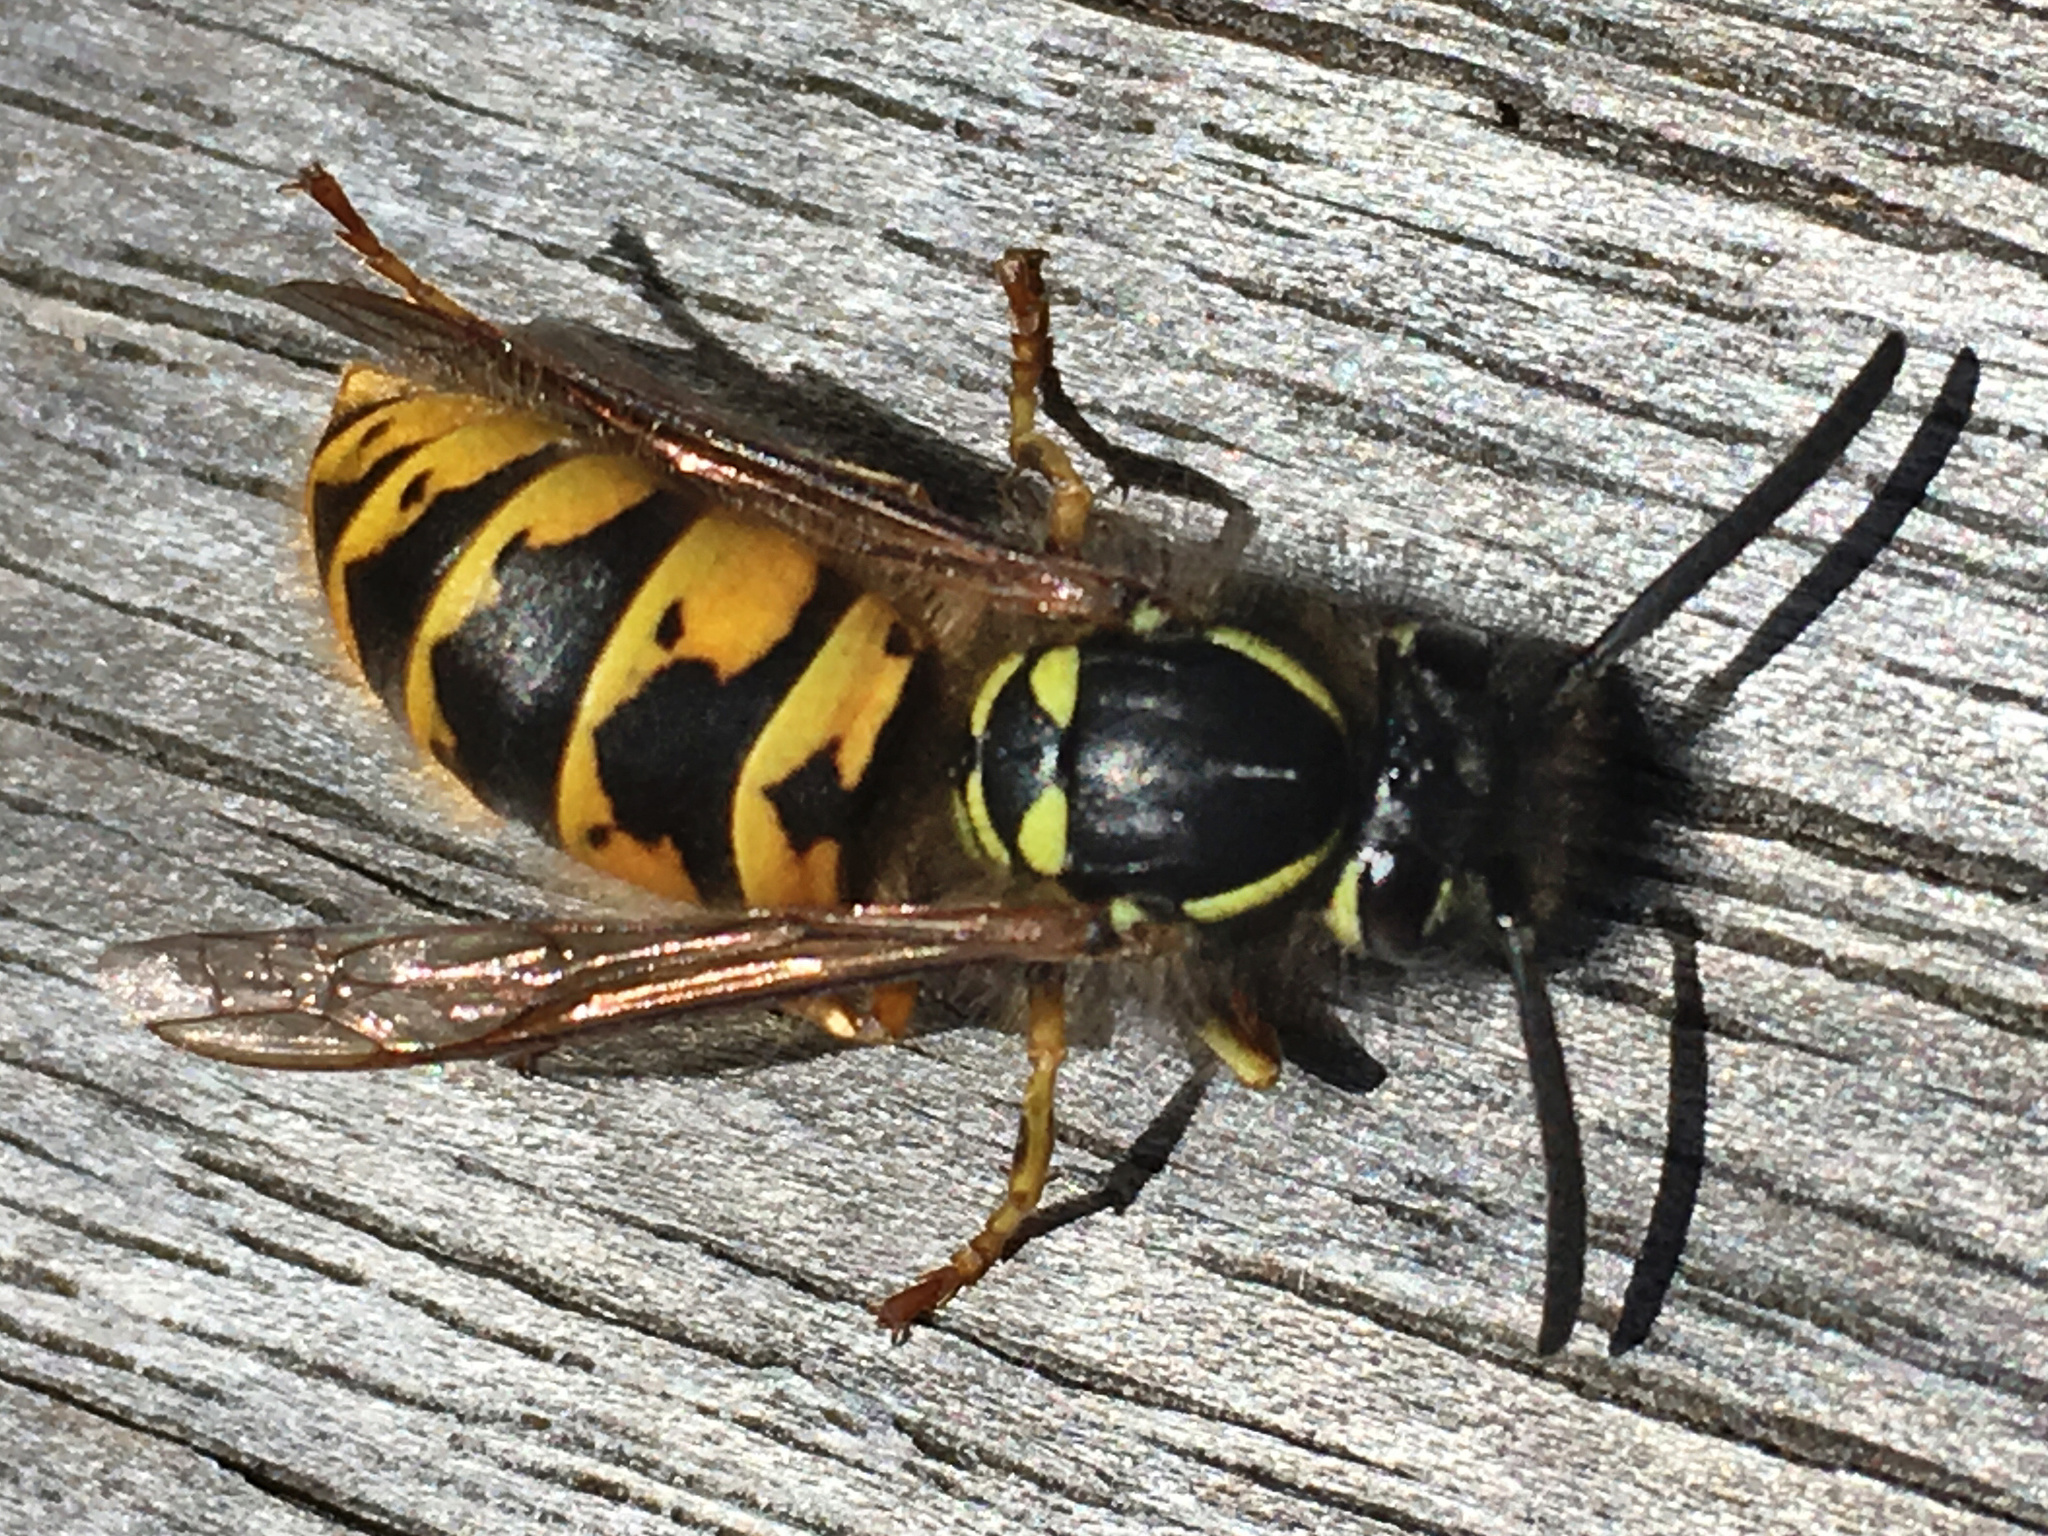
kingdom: Animalia
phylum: Arthropoda
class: Insecta
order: Hymenoptera
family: Vespidae
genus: Vespula
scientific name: Vespula vulgaris
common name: Common wasp
